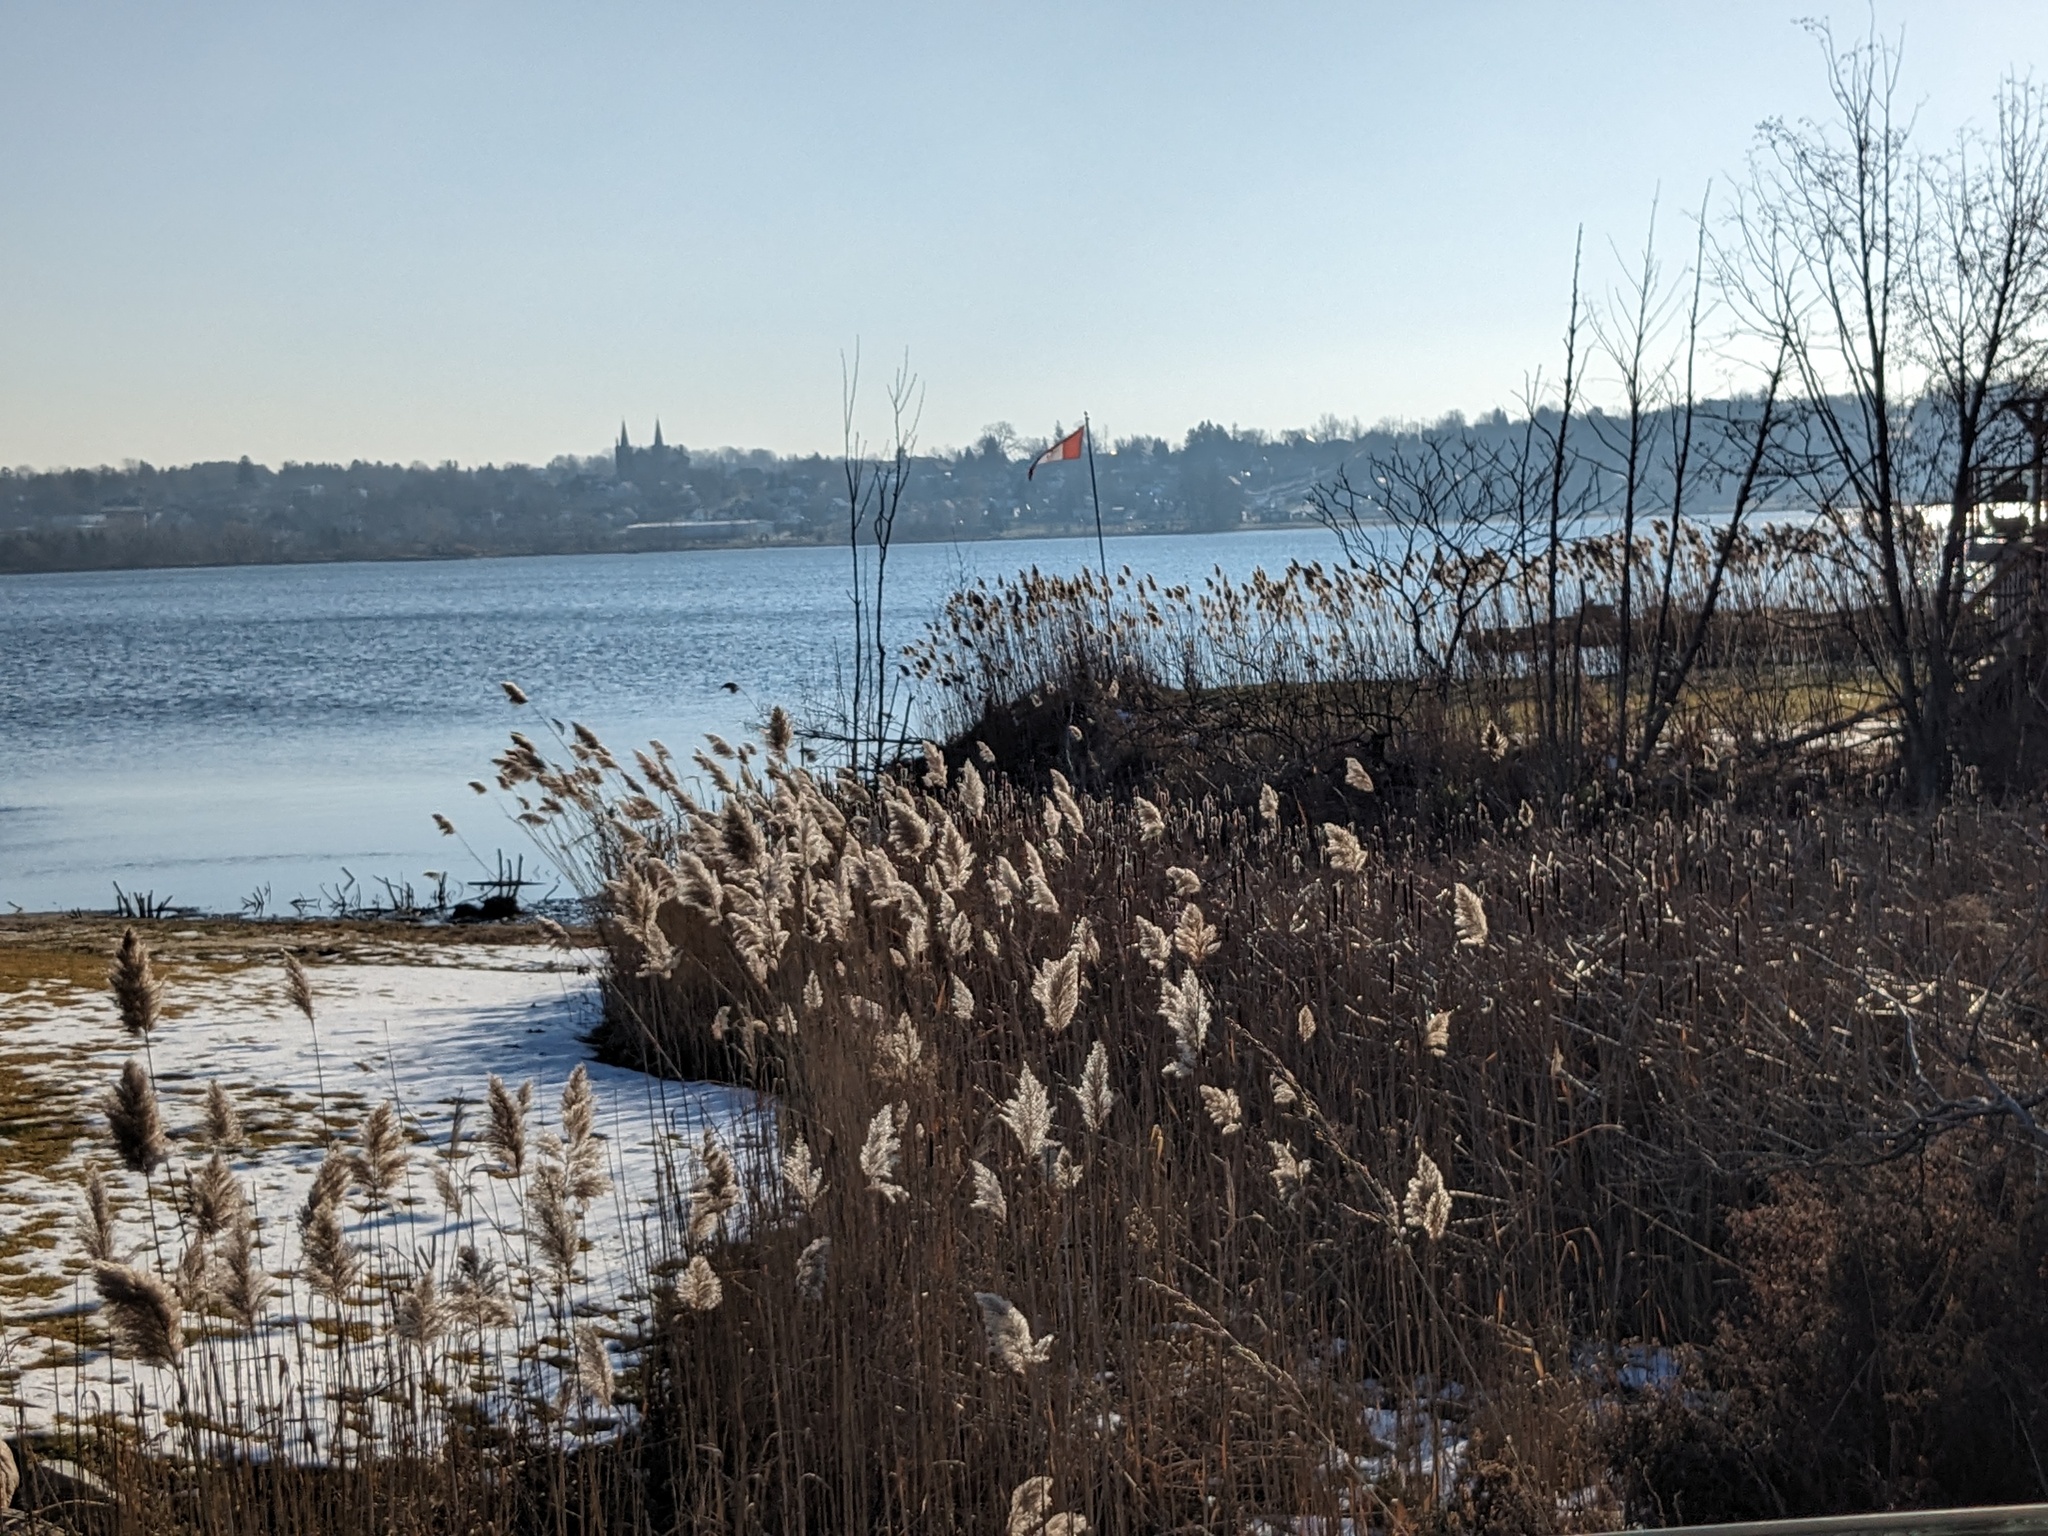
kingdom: Plantae
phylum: Tracheophyta
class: Liliopsida
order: Poales
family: Poaceae
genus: Phragmites
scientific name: Phragmites australis
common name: Common reed
